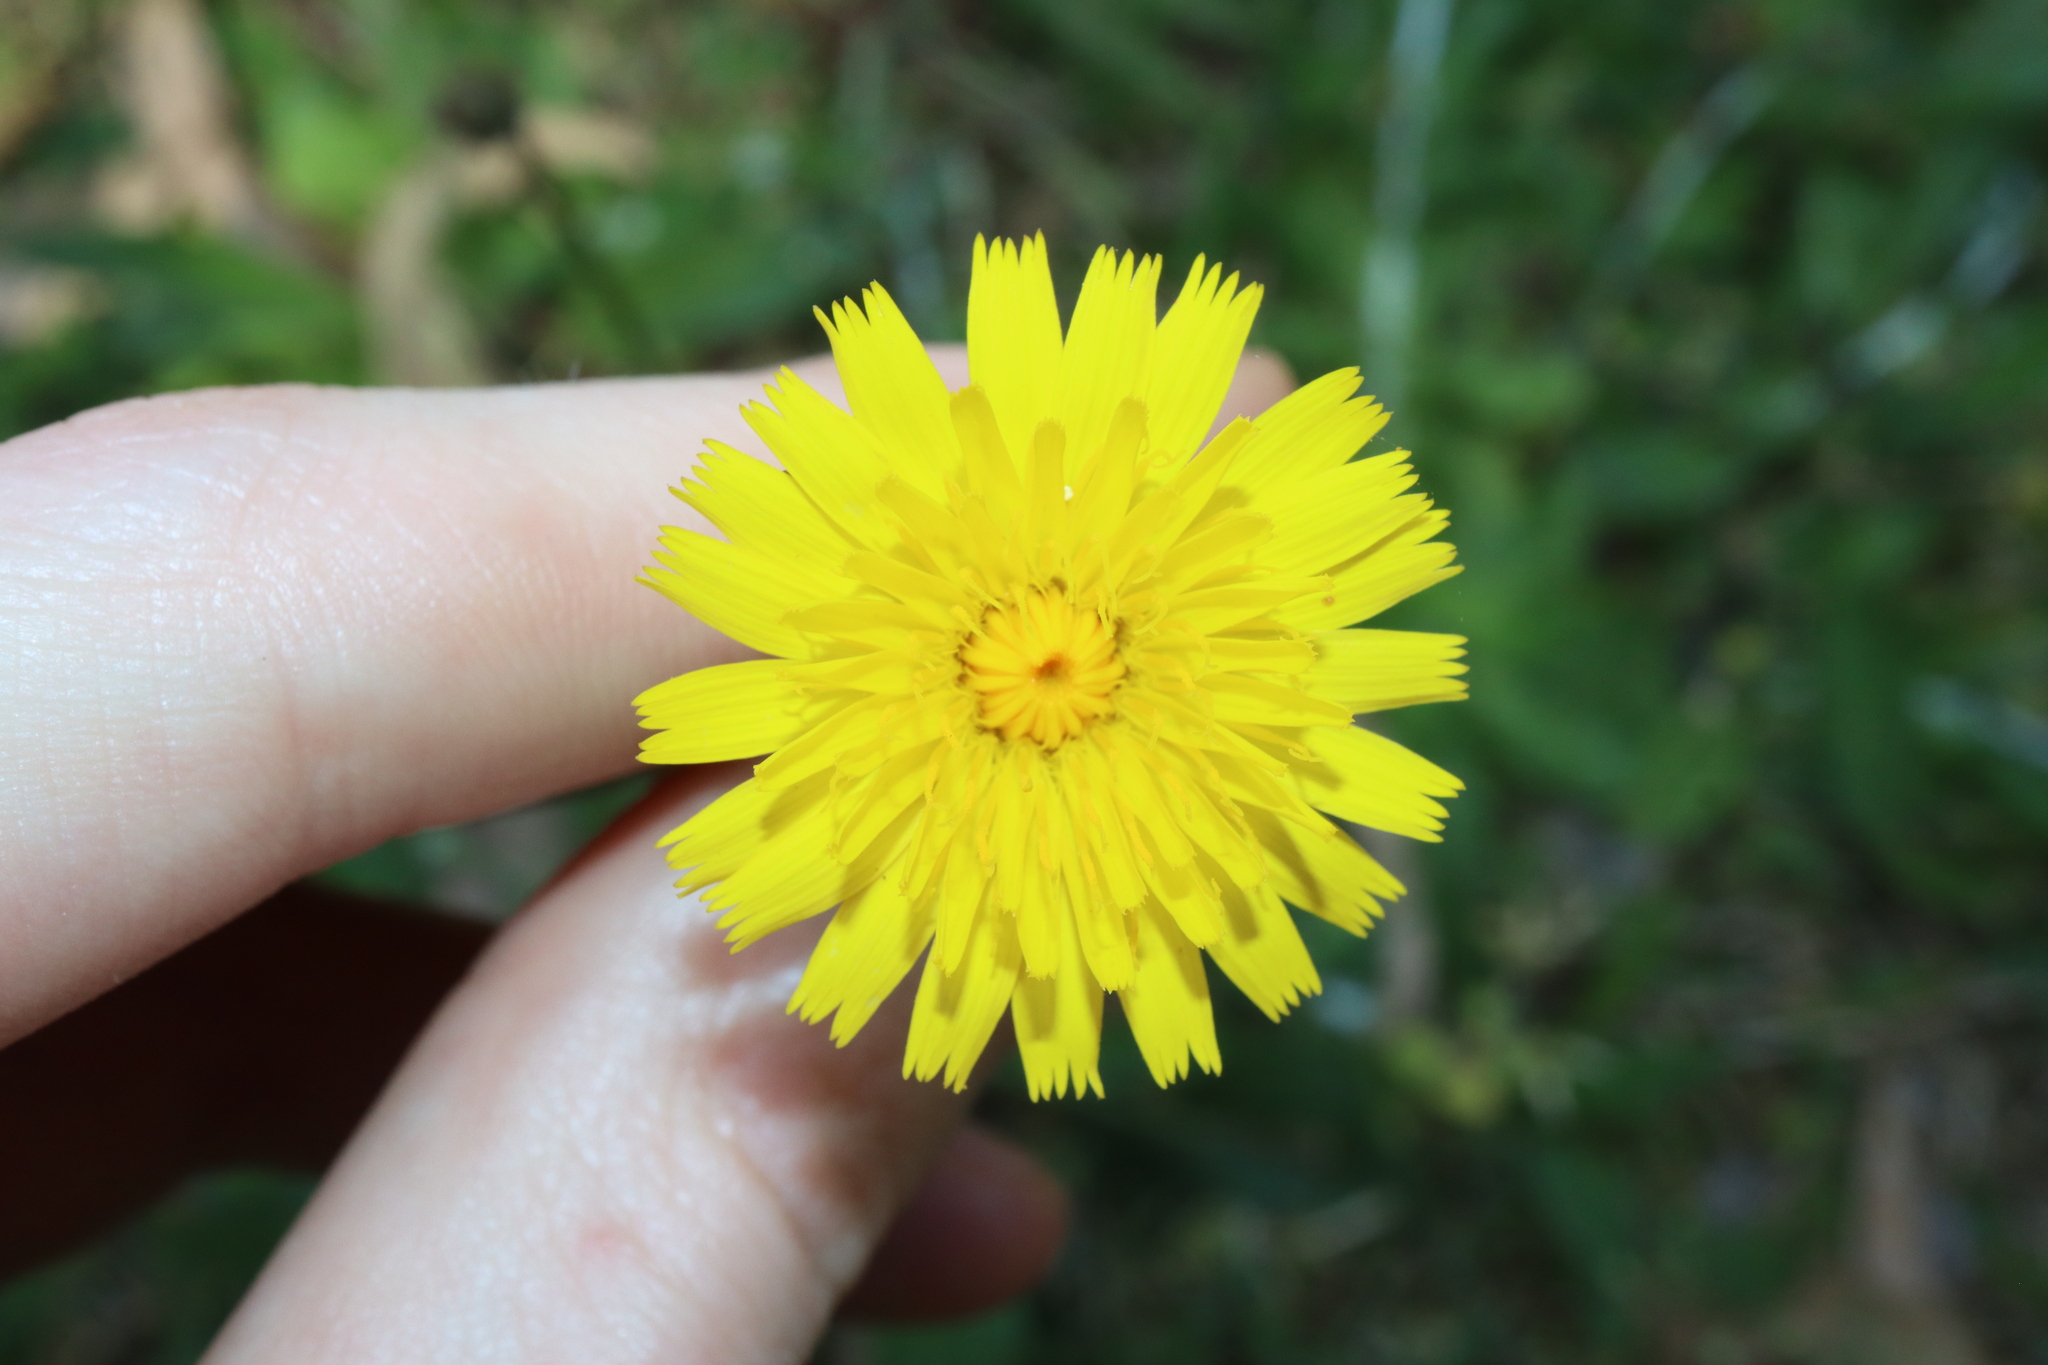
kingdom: Plantae
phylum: Tracheophyta
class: Magnoliopsida
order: Asterales
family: Asteraceae
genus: Hypochaeris
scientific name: Hypochaeris radicata
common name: Flatweed
